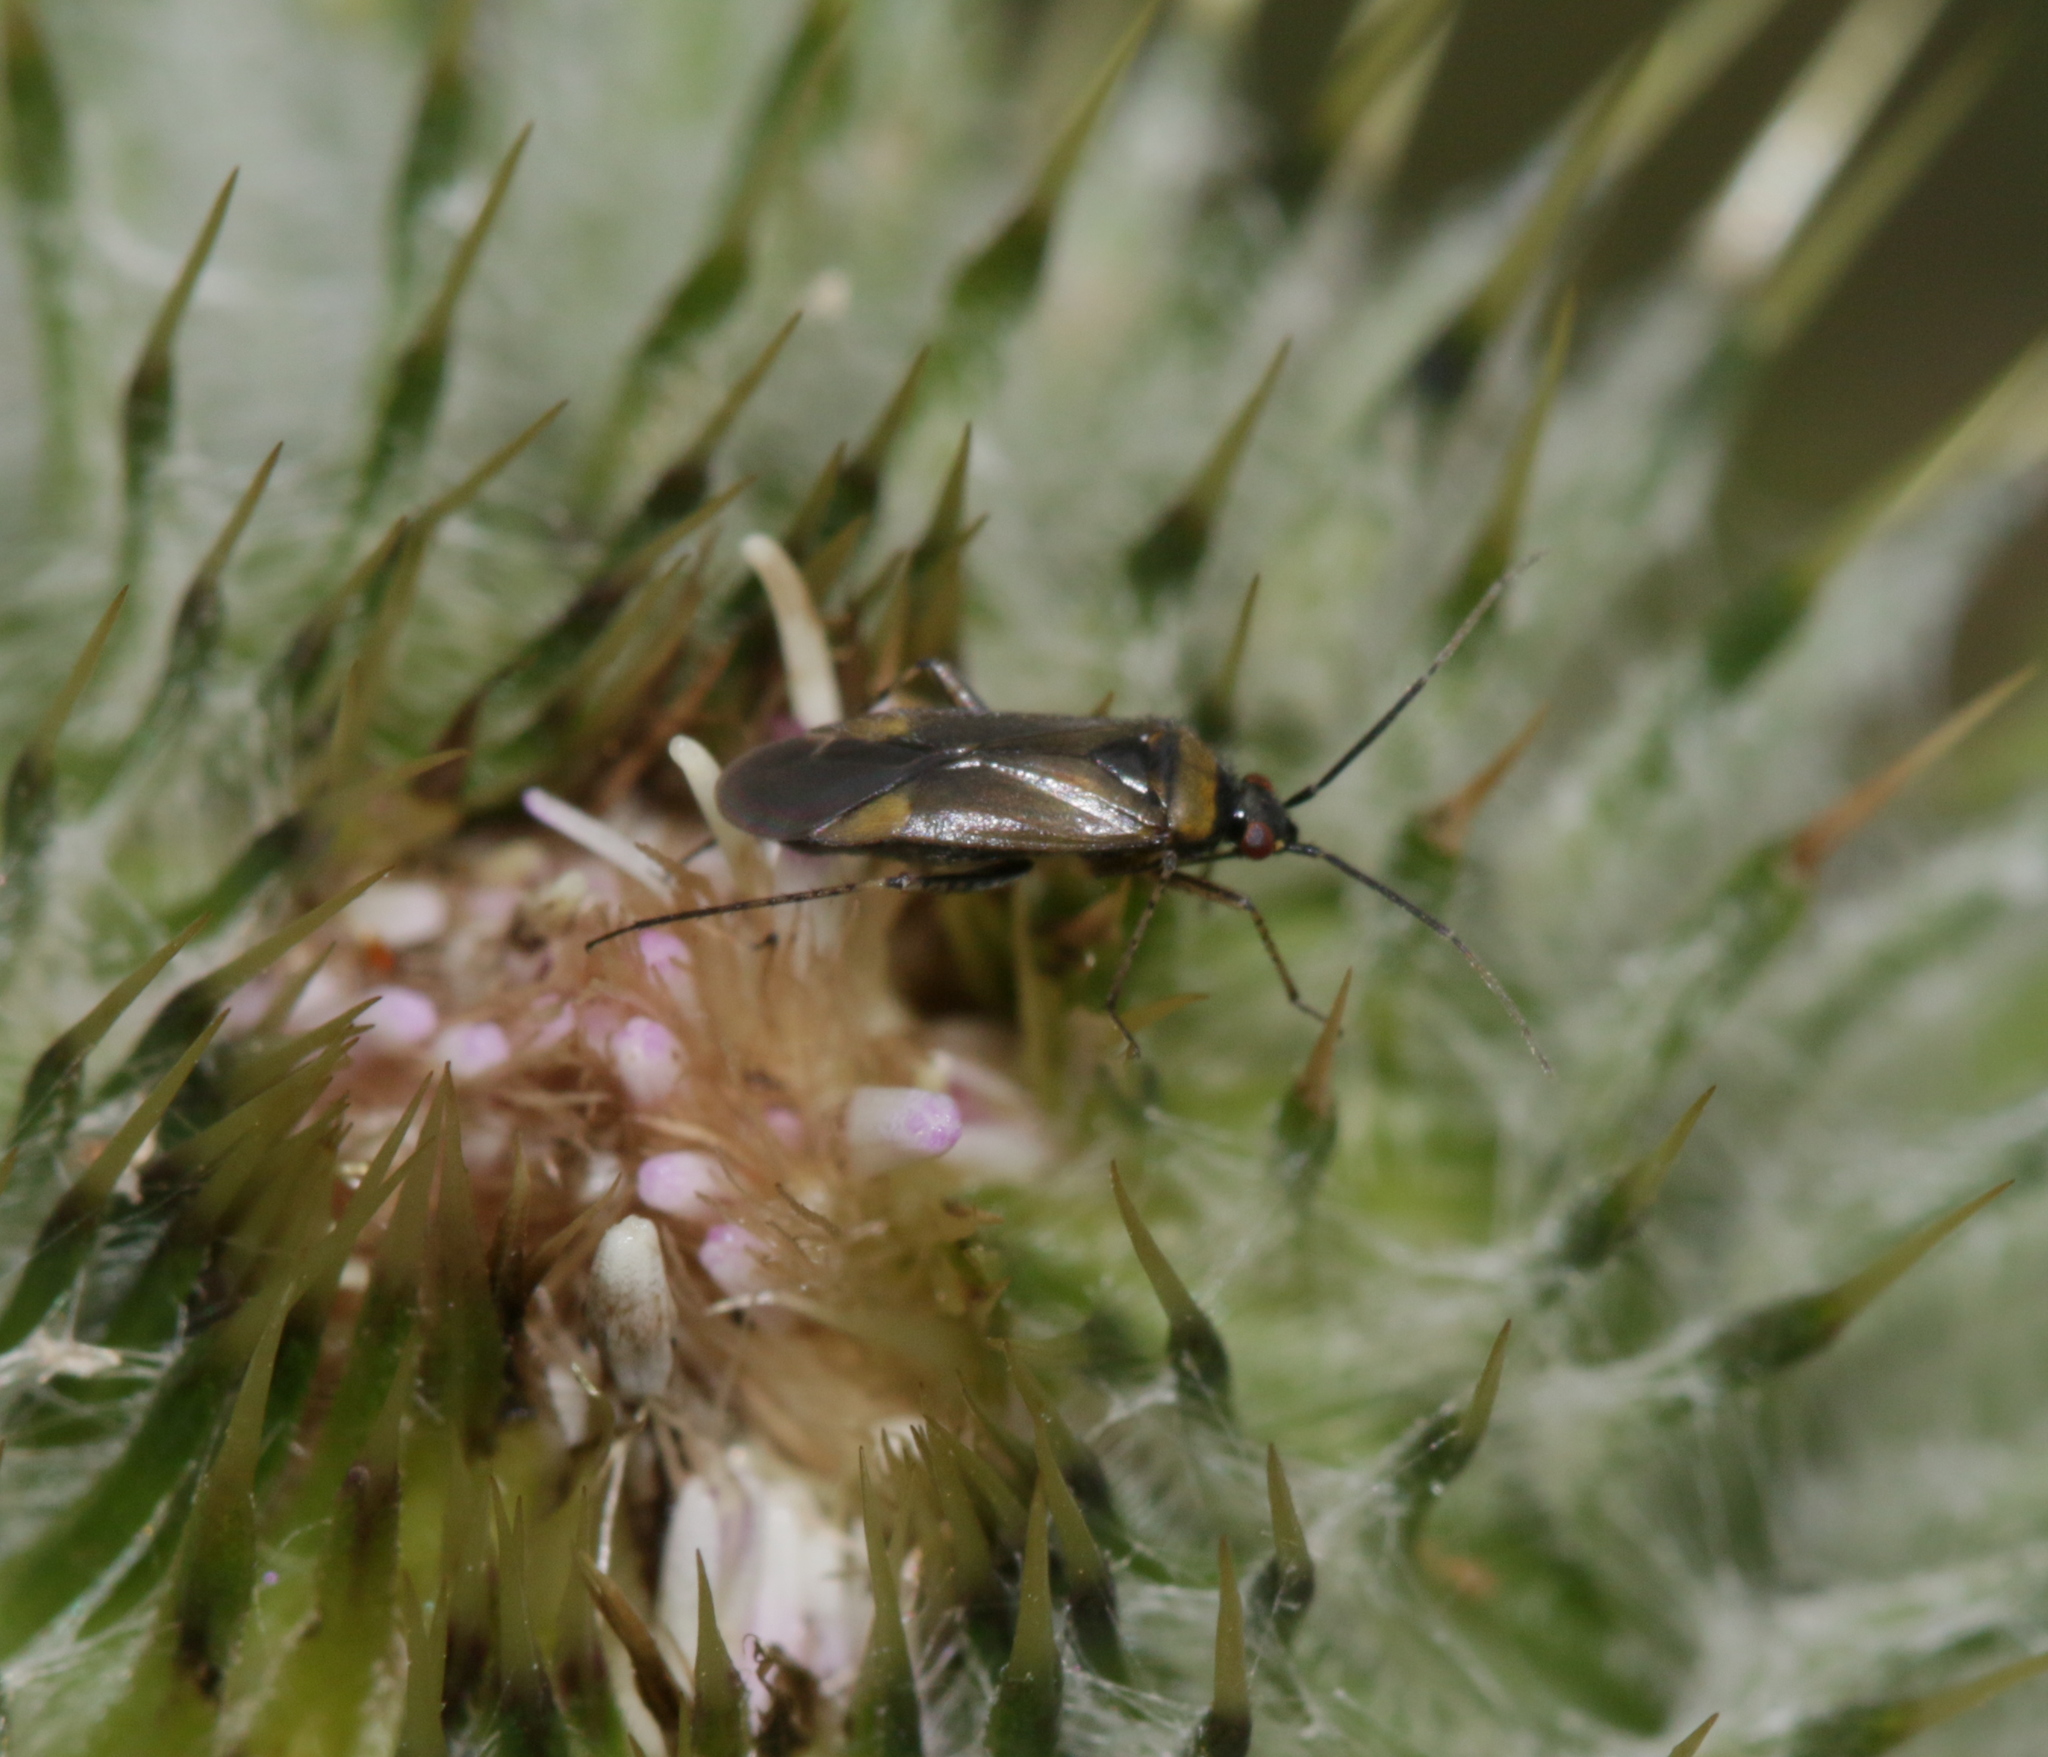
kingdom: Animalia
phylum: Arthropoda
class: Insecta
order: Hemiptera
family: Miridae
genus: Plagiognathus
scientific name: Plagiognathus arbustorum
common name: Plant bug
